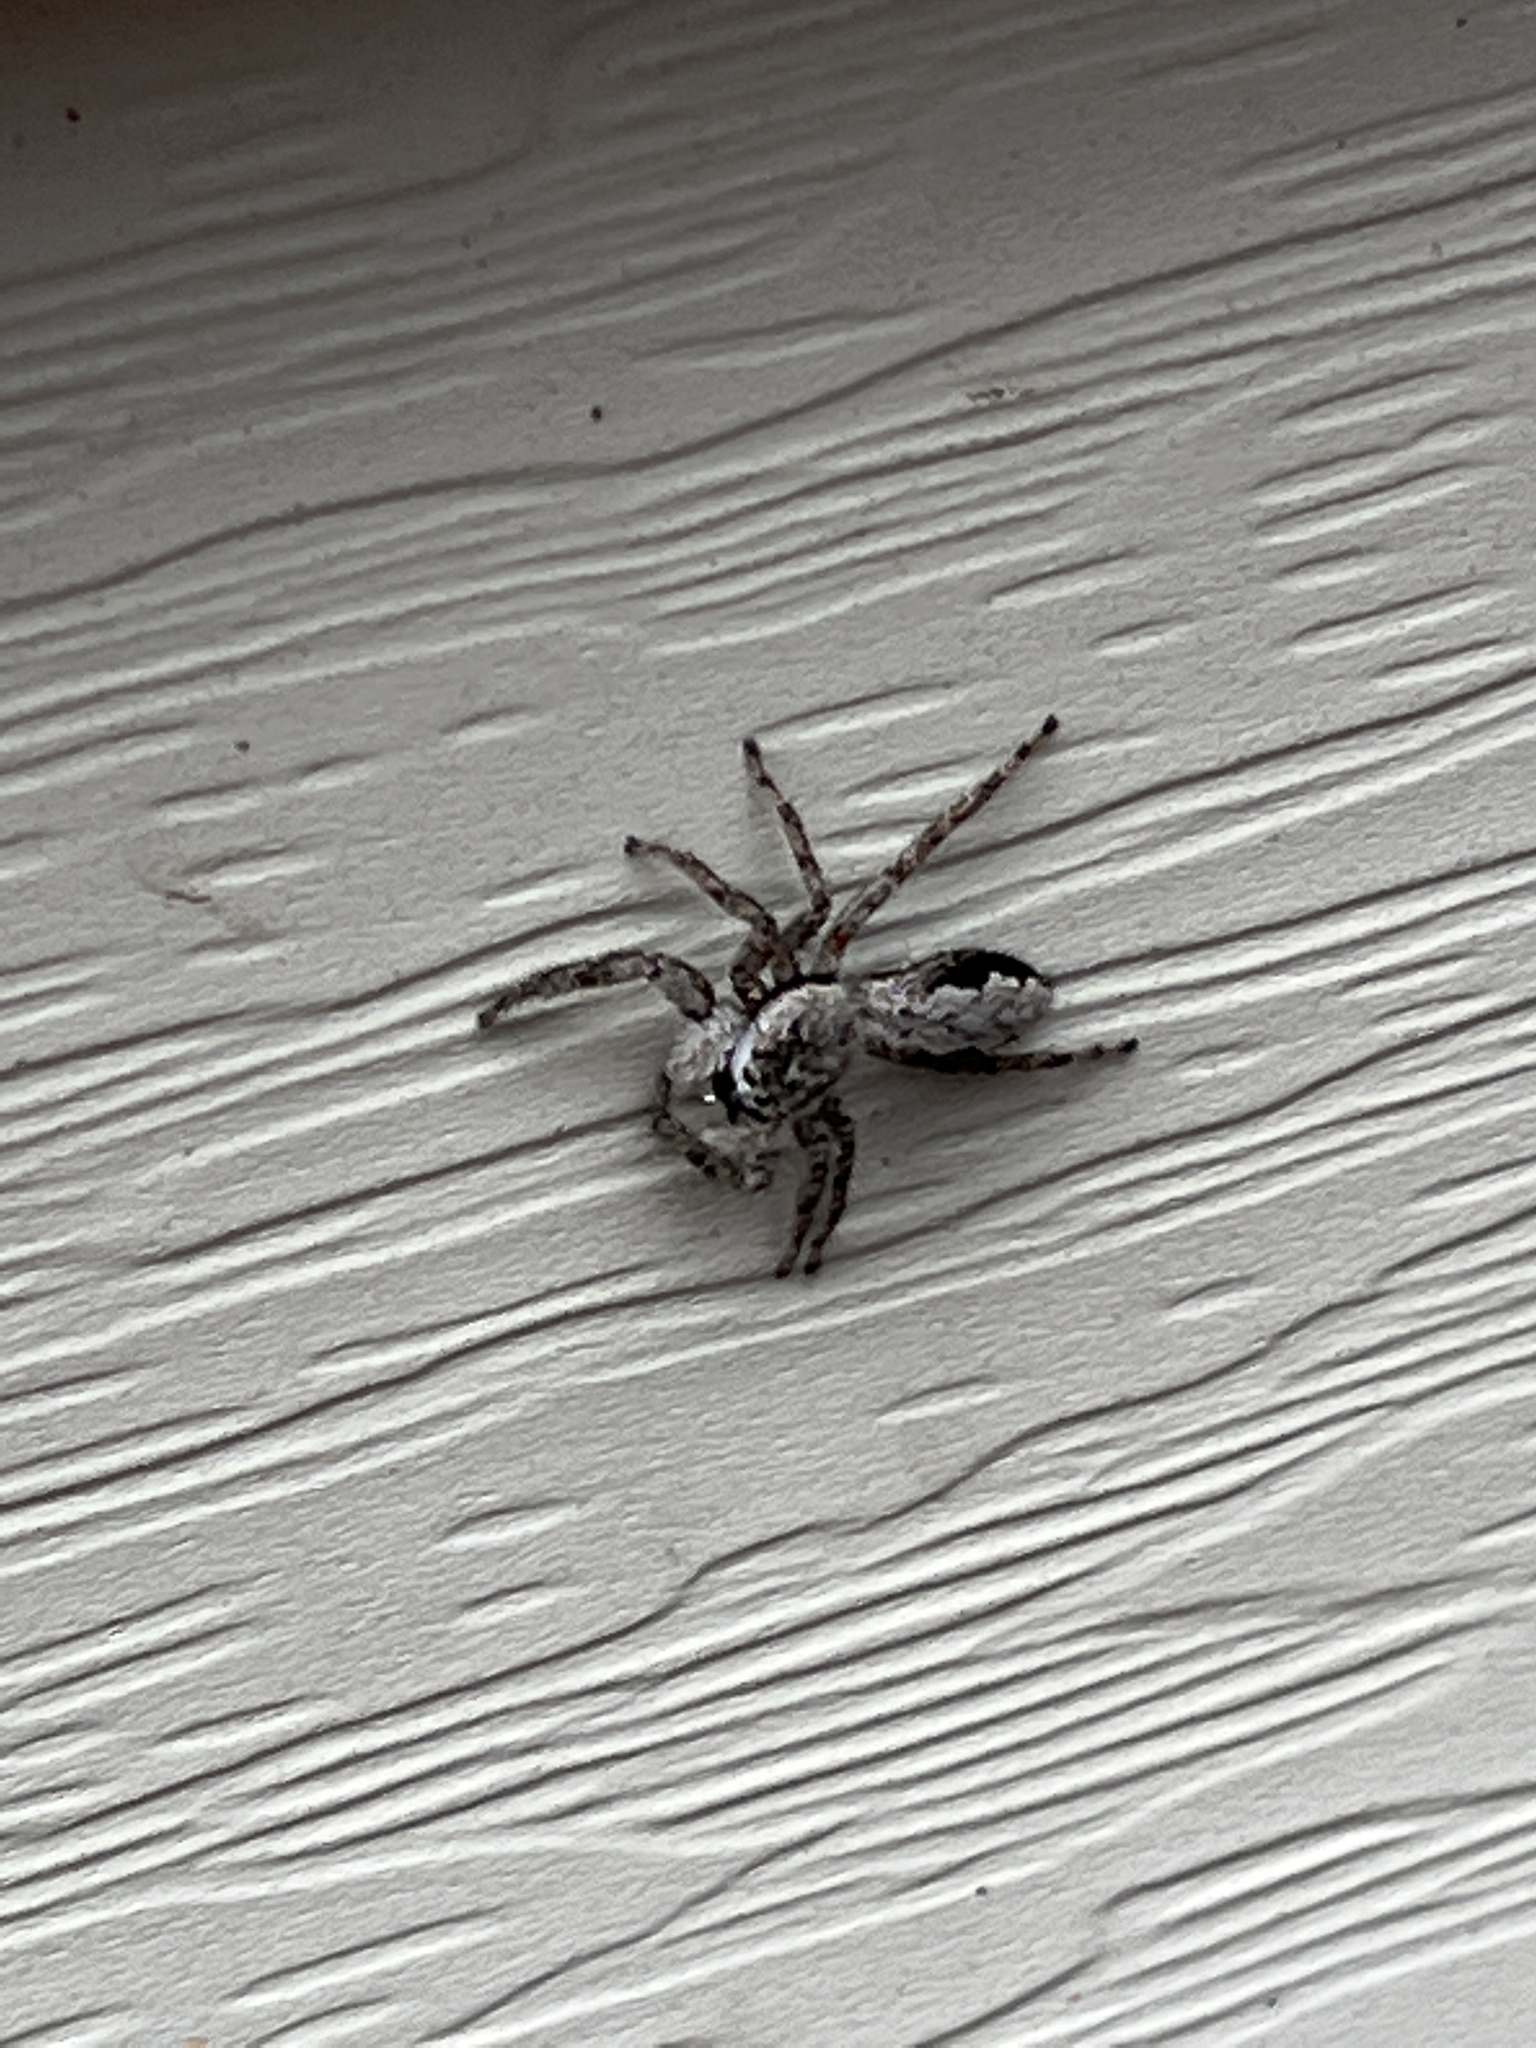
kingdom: Animalia
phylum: Arthropoda
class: Arachnida
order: Araneae
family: Salticidae
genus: Platycryptus
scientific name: Platycryptus undatus
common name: Tan jumping spider
